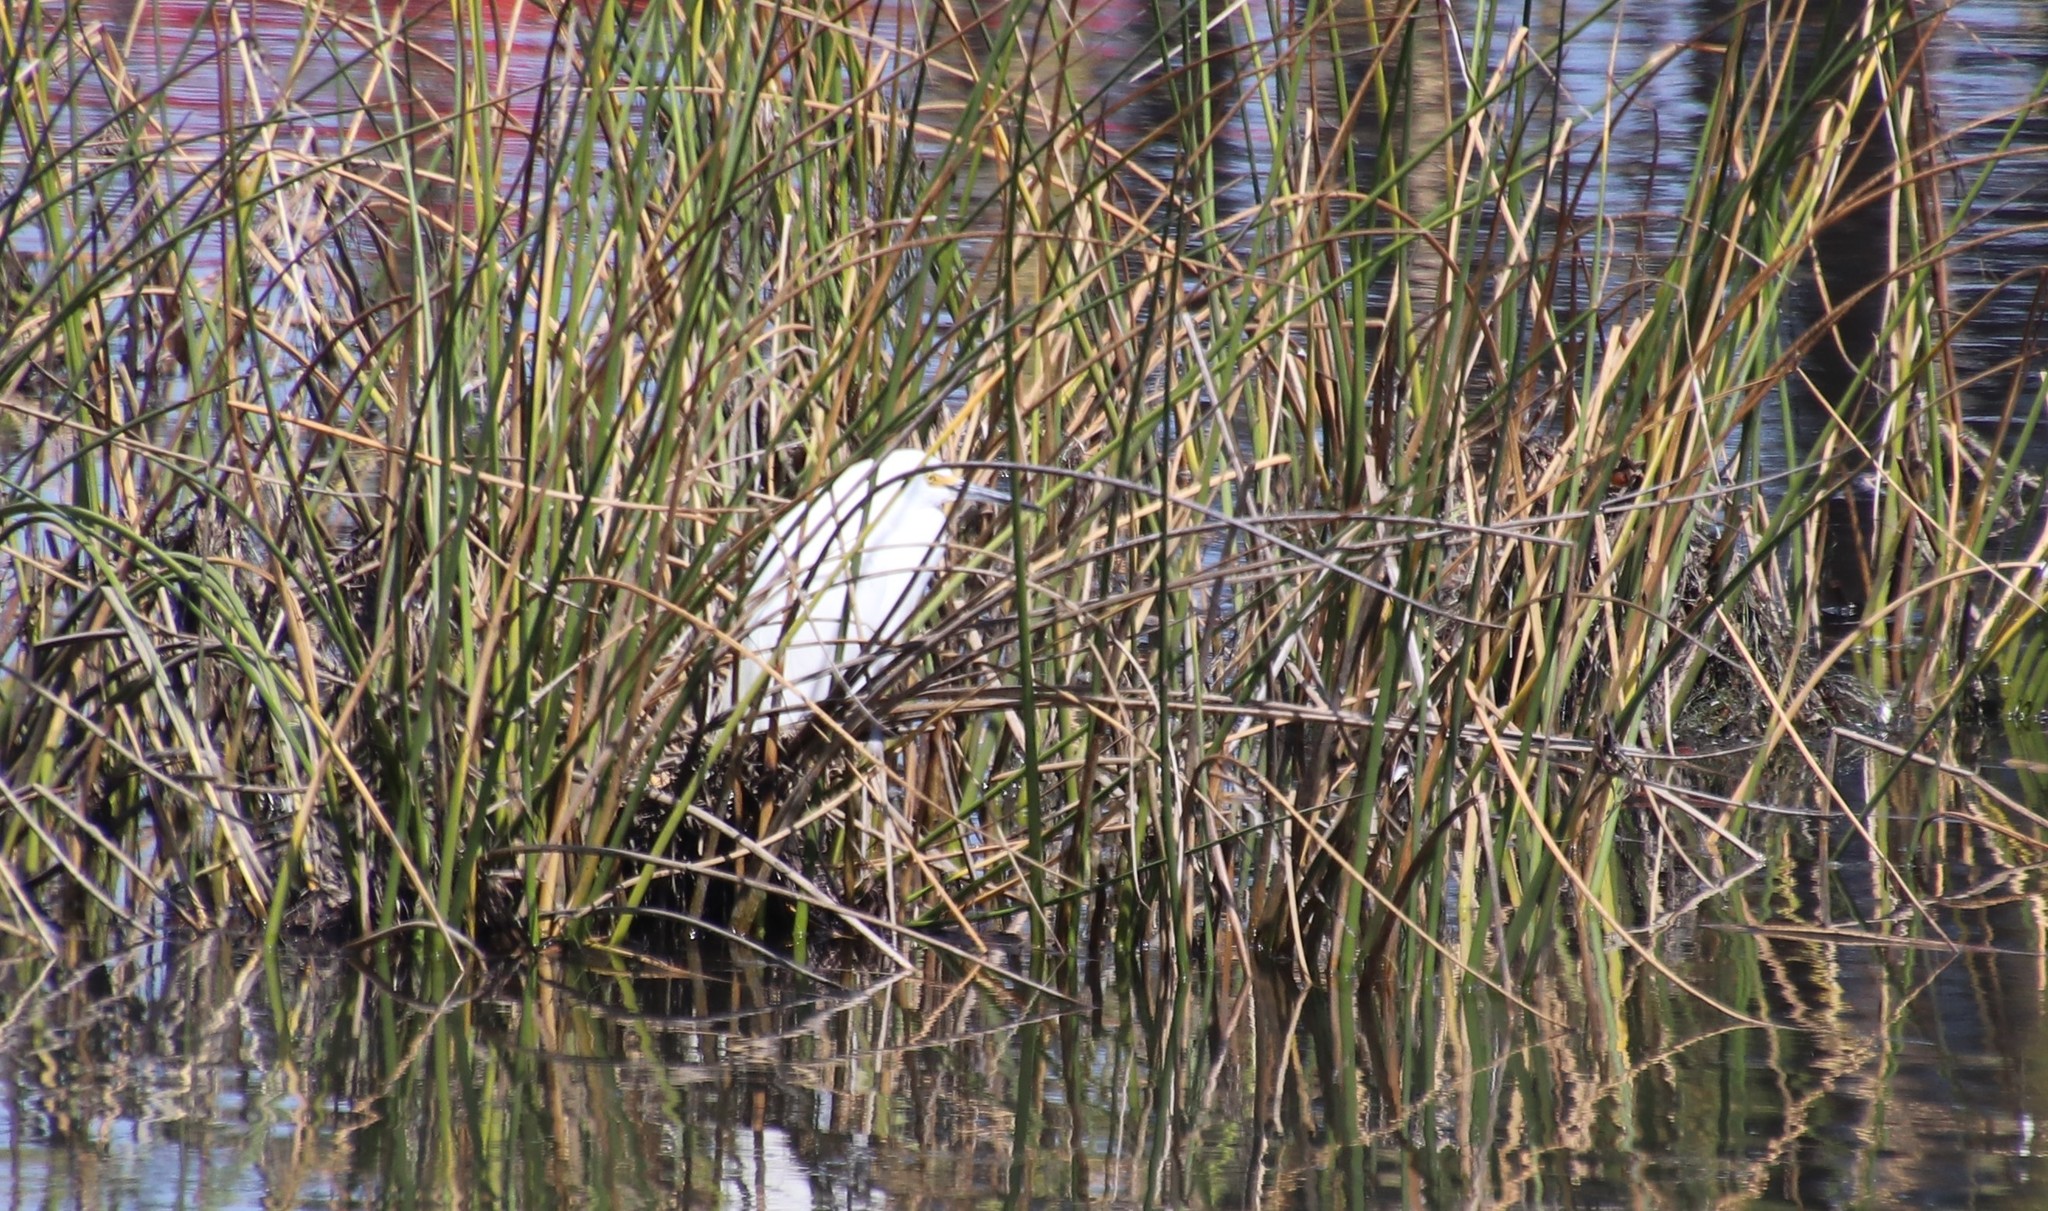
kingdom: Animalia
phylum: Chordata
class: Aves
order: Pelecaniformes
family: Ardeidae
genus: Egretta
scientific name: Egretta thula
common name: Snowy egret
